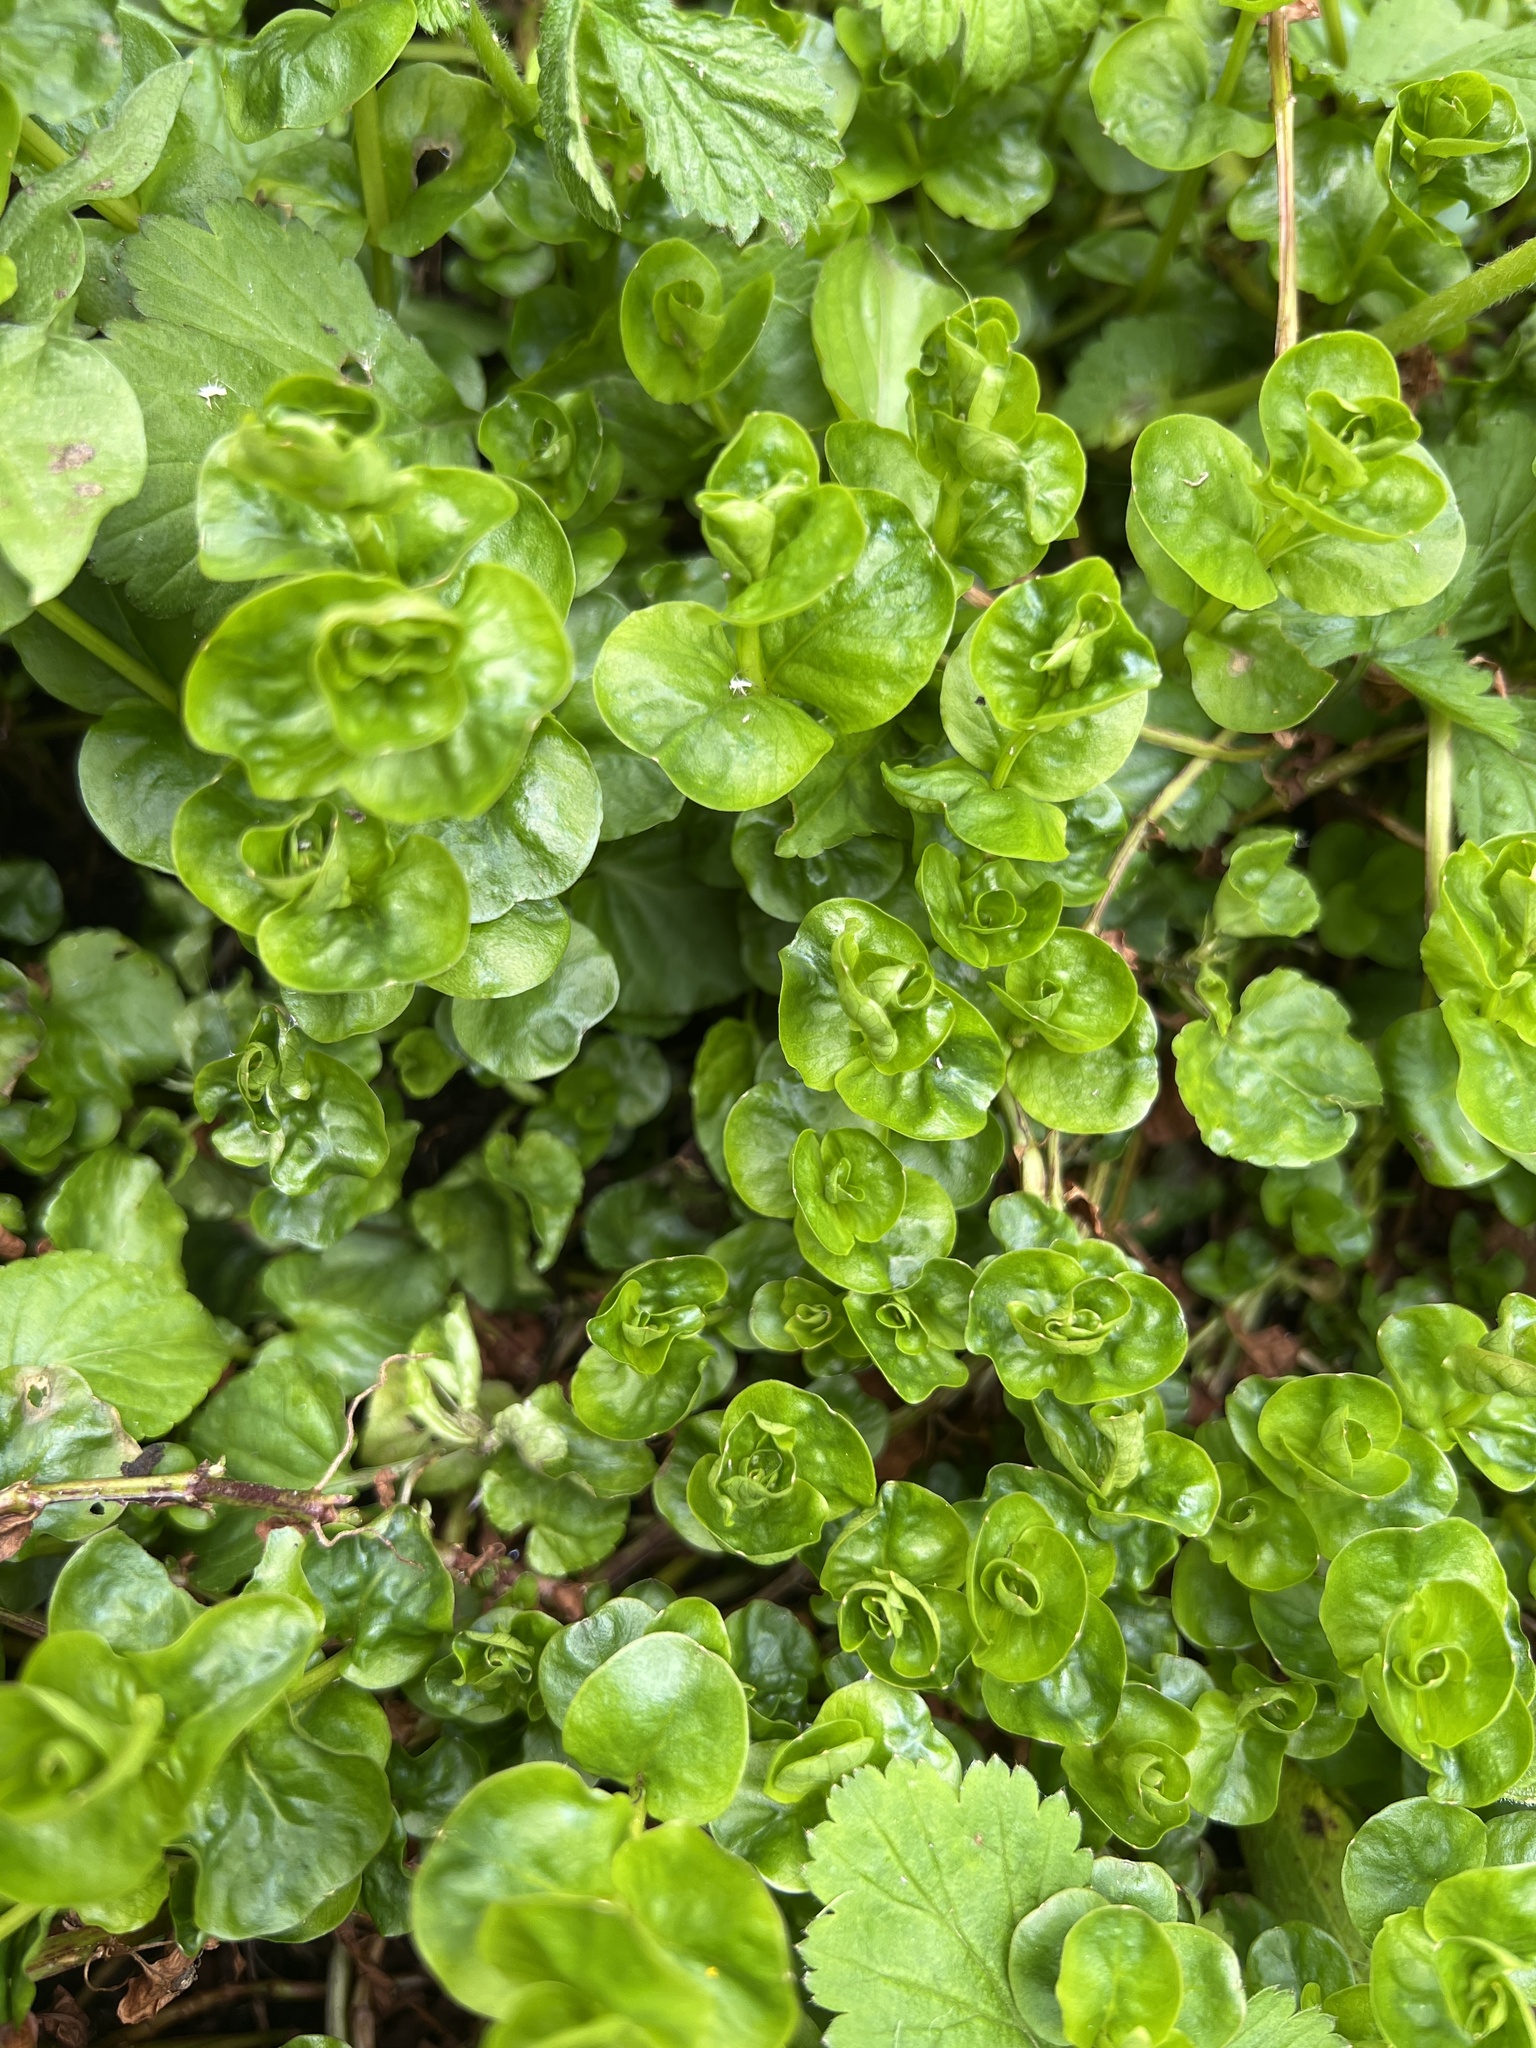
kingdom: Plantae
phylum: Tracheophyta
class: Magnoliopsida
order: Ericales
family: Primulaceae
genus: Lysimachia
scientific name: Lysimachia nummularia
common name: Moneywort
